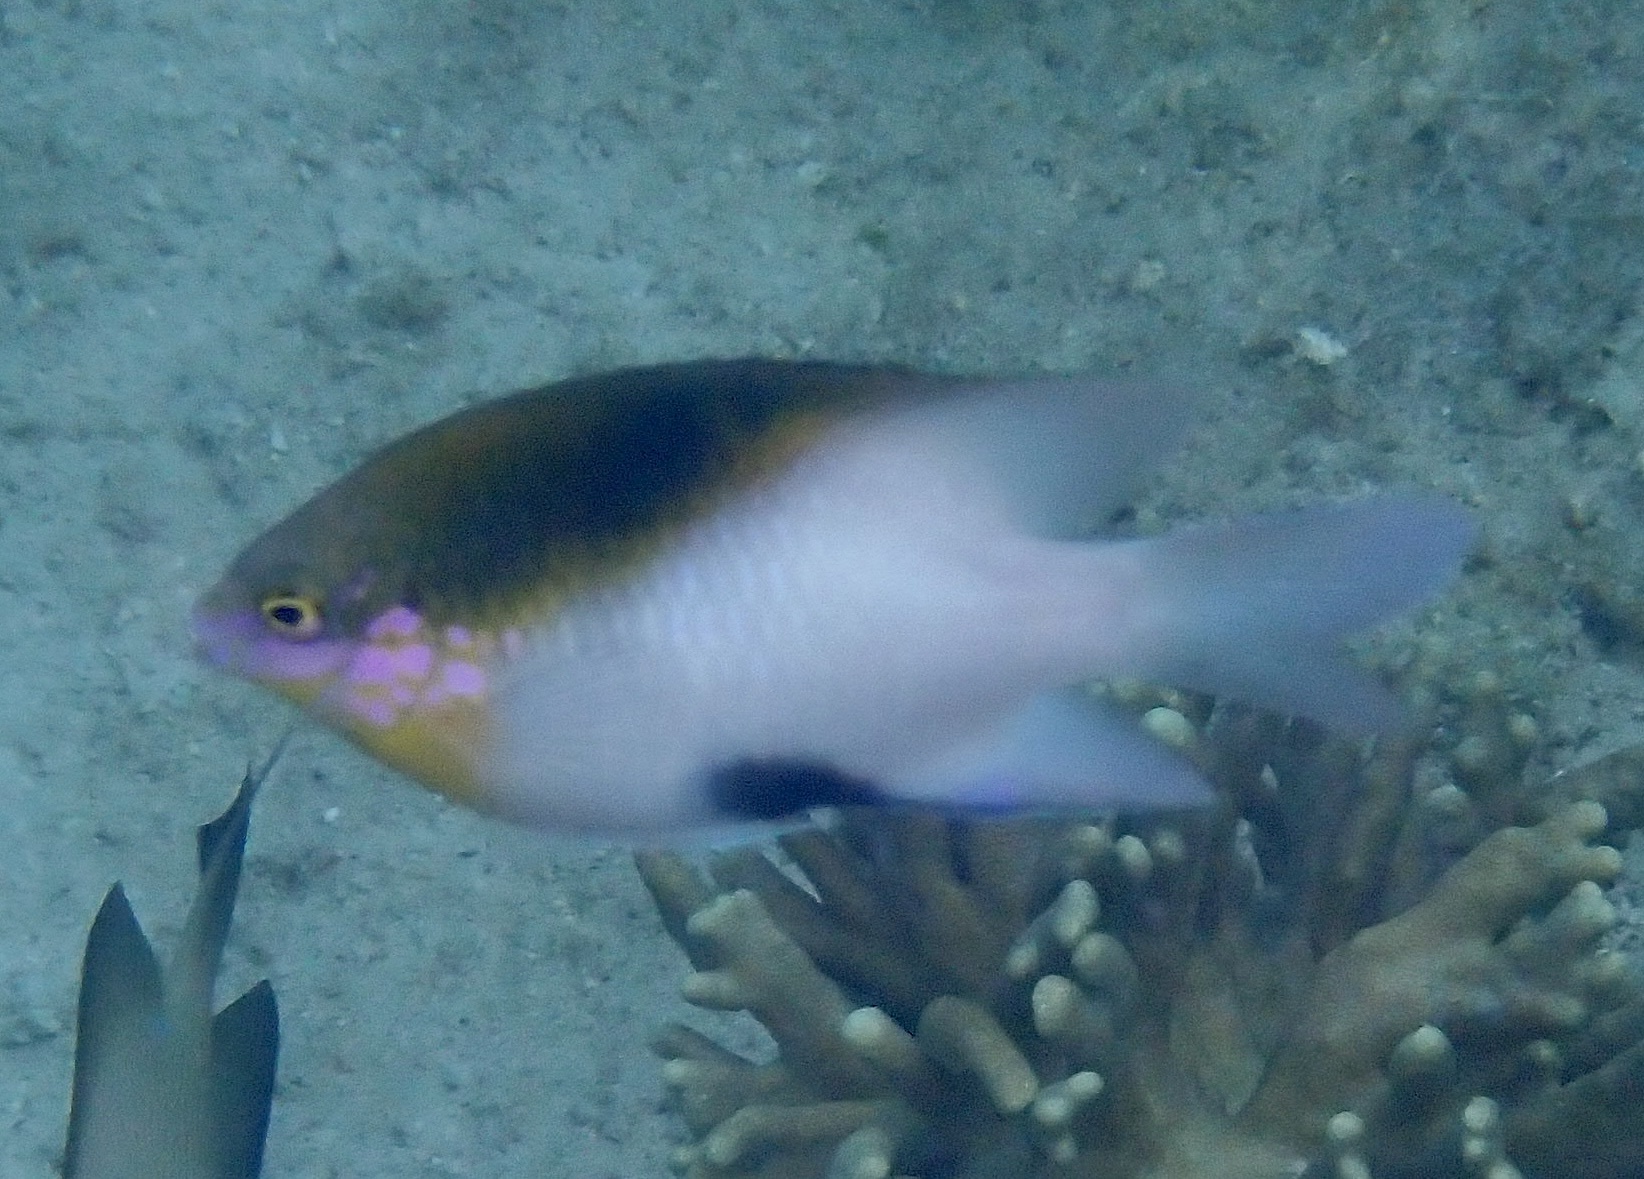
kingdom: Animalia
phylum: Chordata
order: Perciformes
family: Pomacentridae
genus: Dischistodus
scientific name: Dischistodus melanotus
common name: Black-vent damsel
